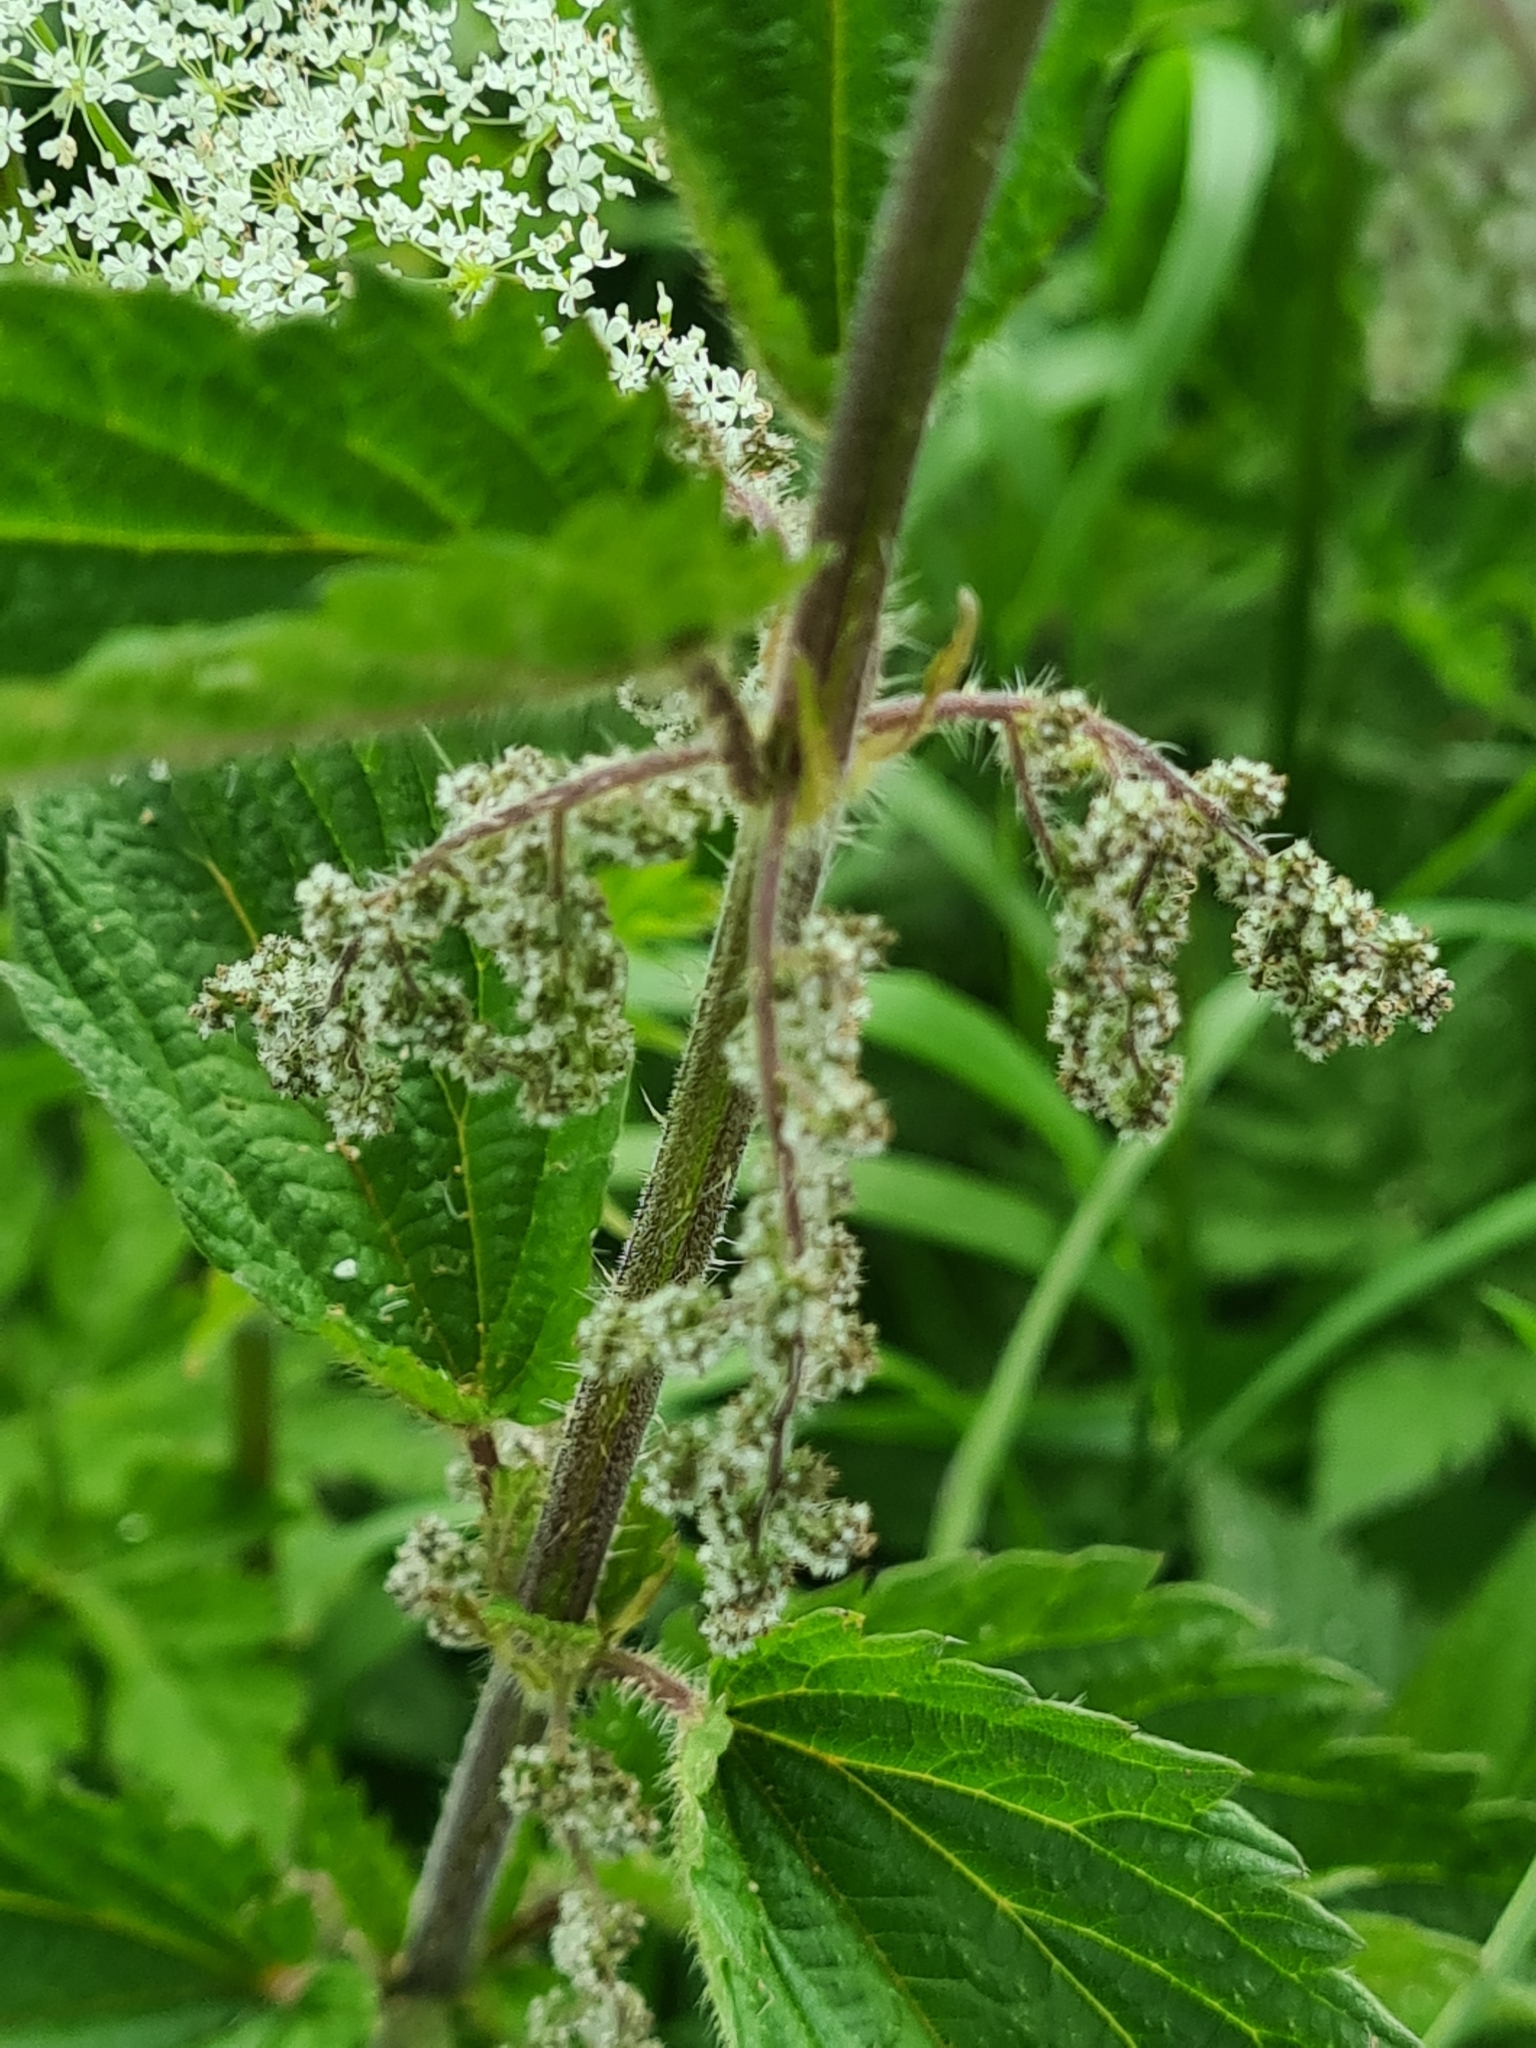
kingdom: Plantae
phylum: Tracheophyta
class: Magnoliopsida
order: Rosales
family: Urticaceae
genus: Urtica
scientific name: Urtica dioica
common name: Common nettle
